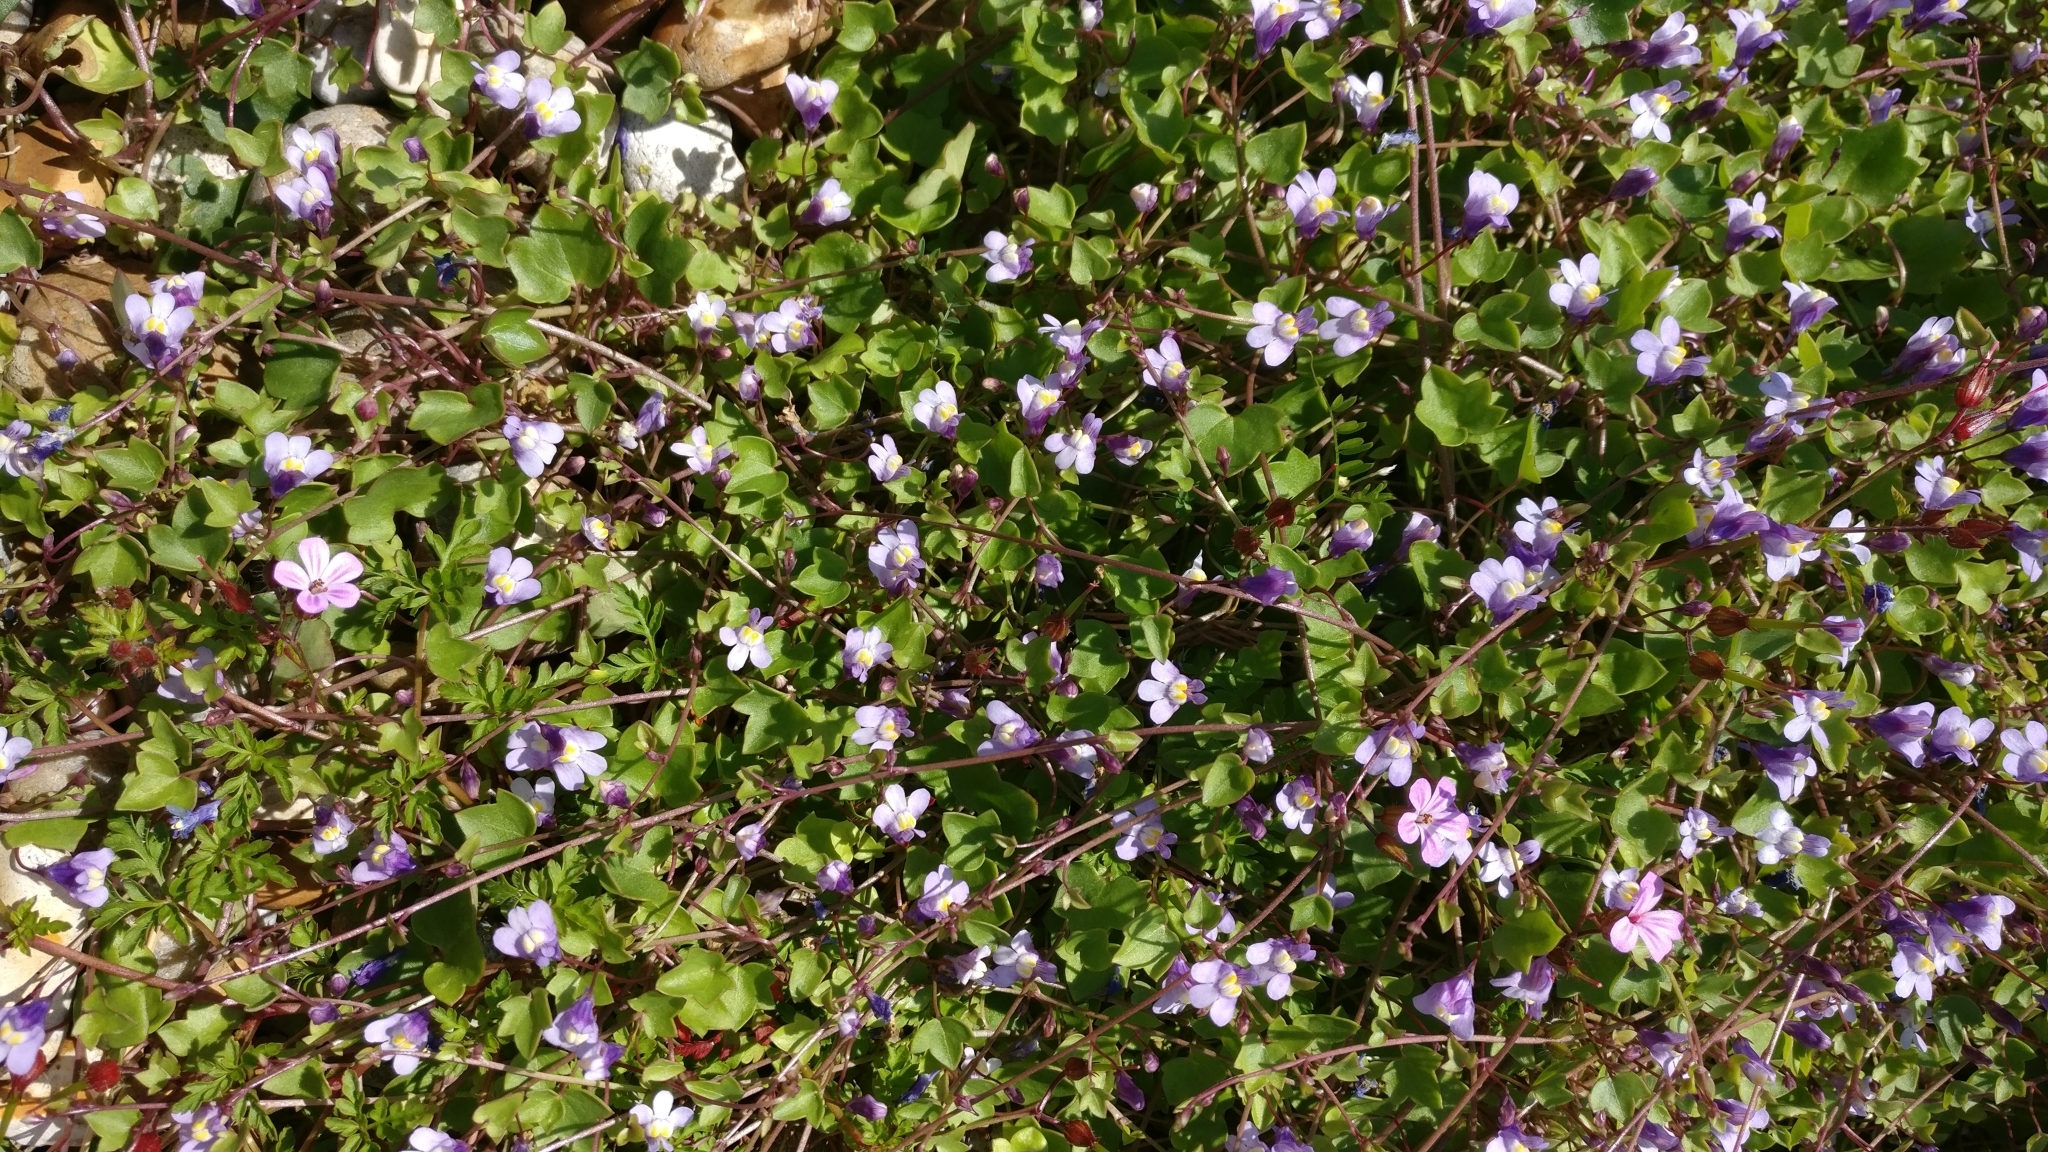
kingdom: Plantae
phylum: Tracheophyta
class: Magnoliopsida
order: Lamiales
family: Plantaginaceae
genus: Cymbalaria
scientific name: Cymbalaria muralis
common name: Ivy-leaved toadflax
